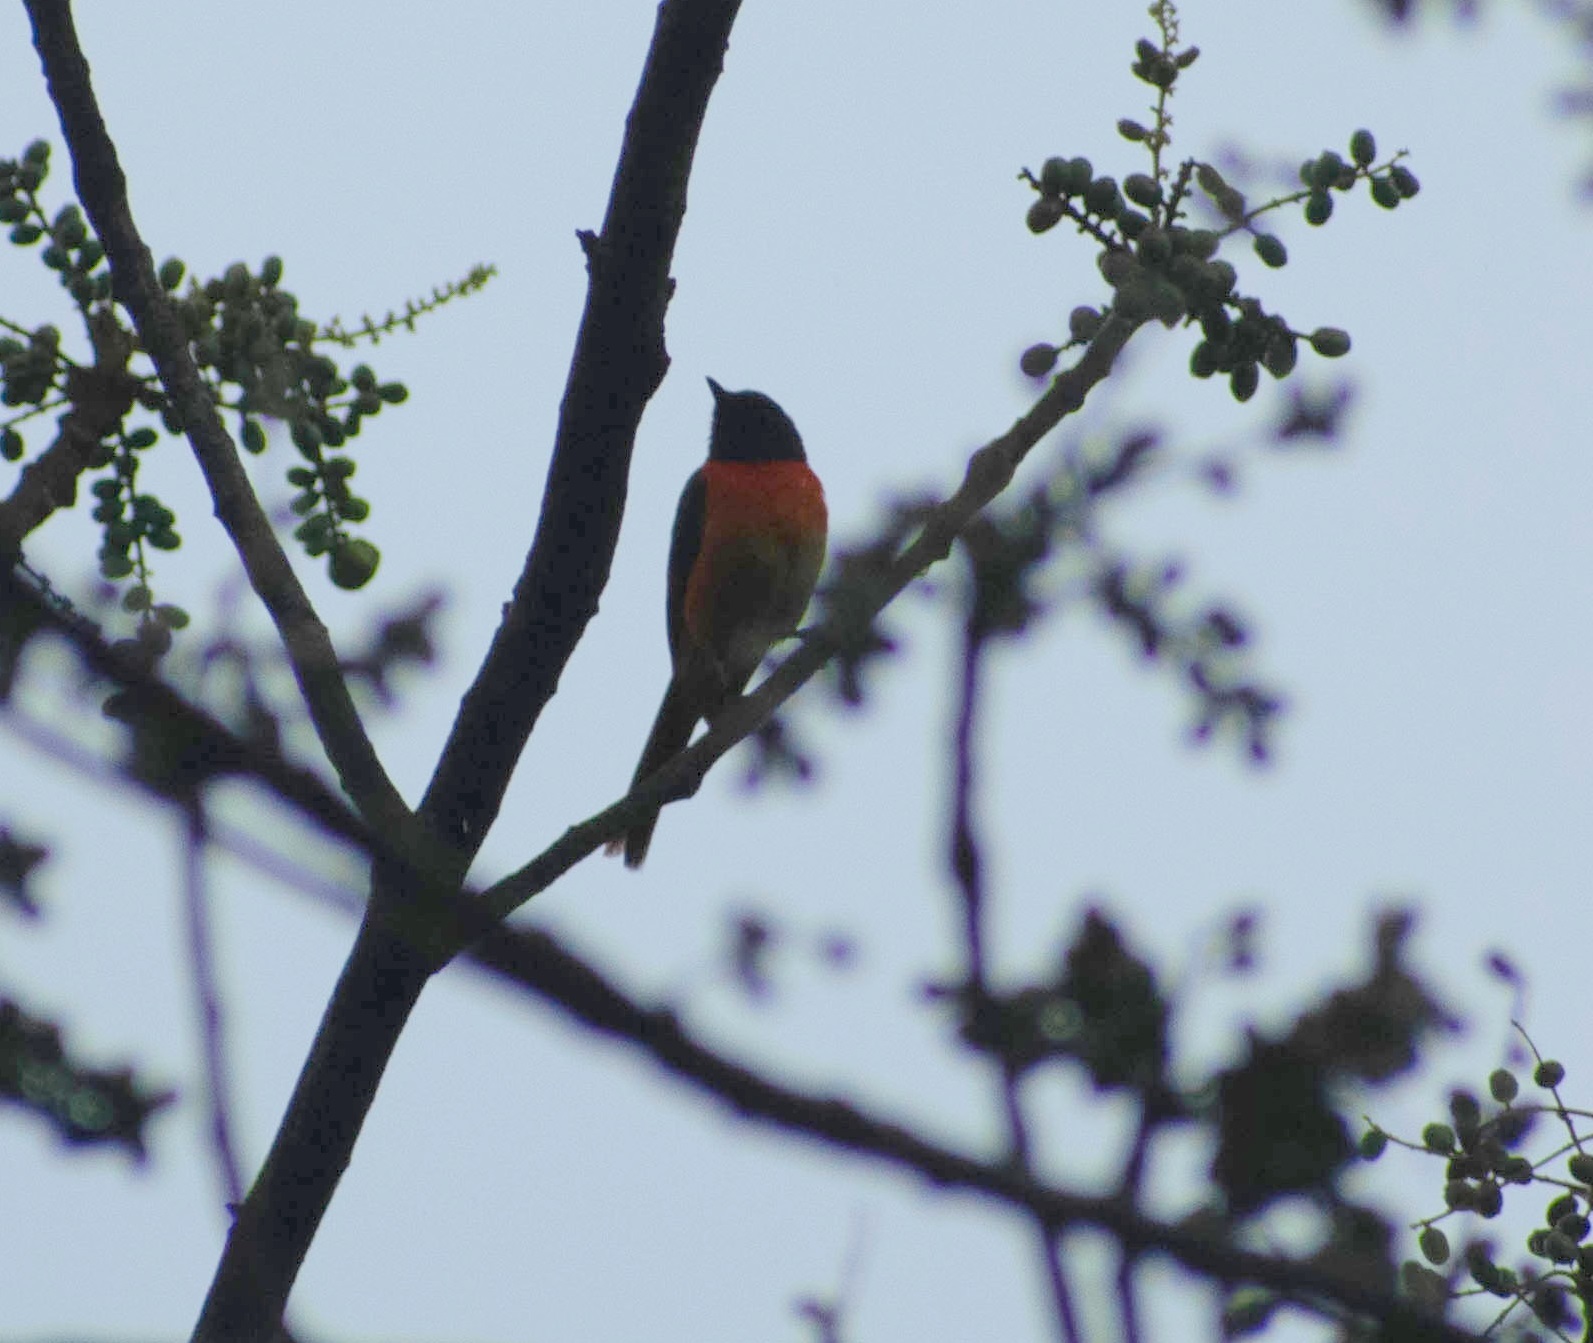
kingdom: Animalia
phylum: Chordata
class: Aves
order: Passeriformes
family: Campephagidae
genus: Pericrocotus
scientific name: Pericrocotus cinnamomeus
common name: Small minivet
